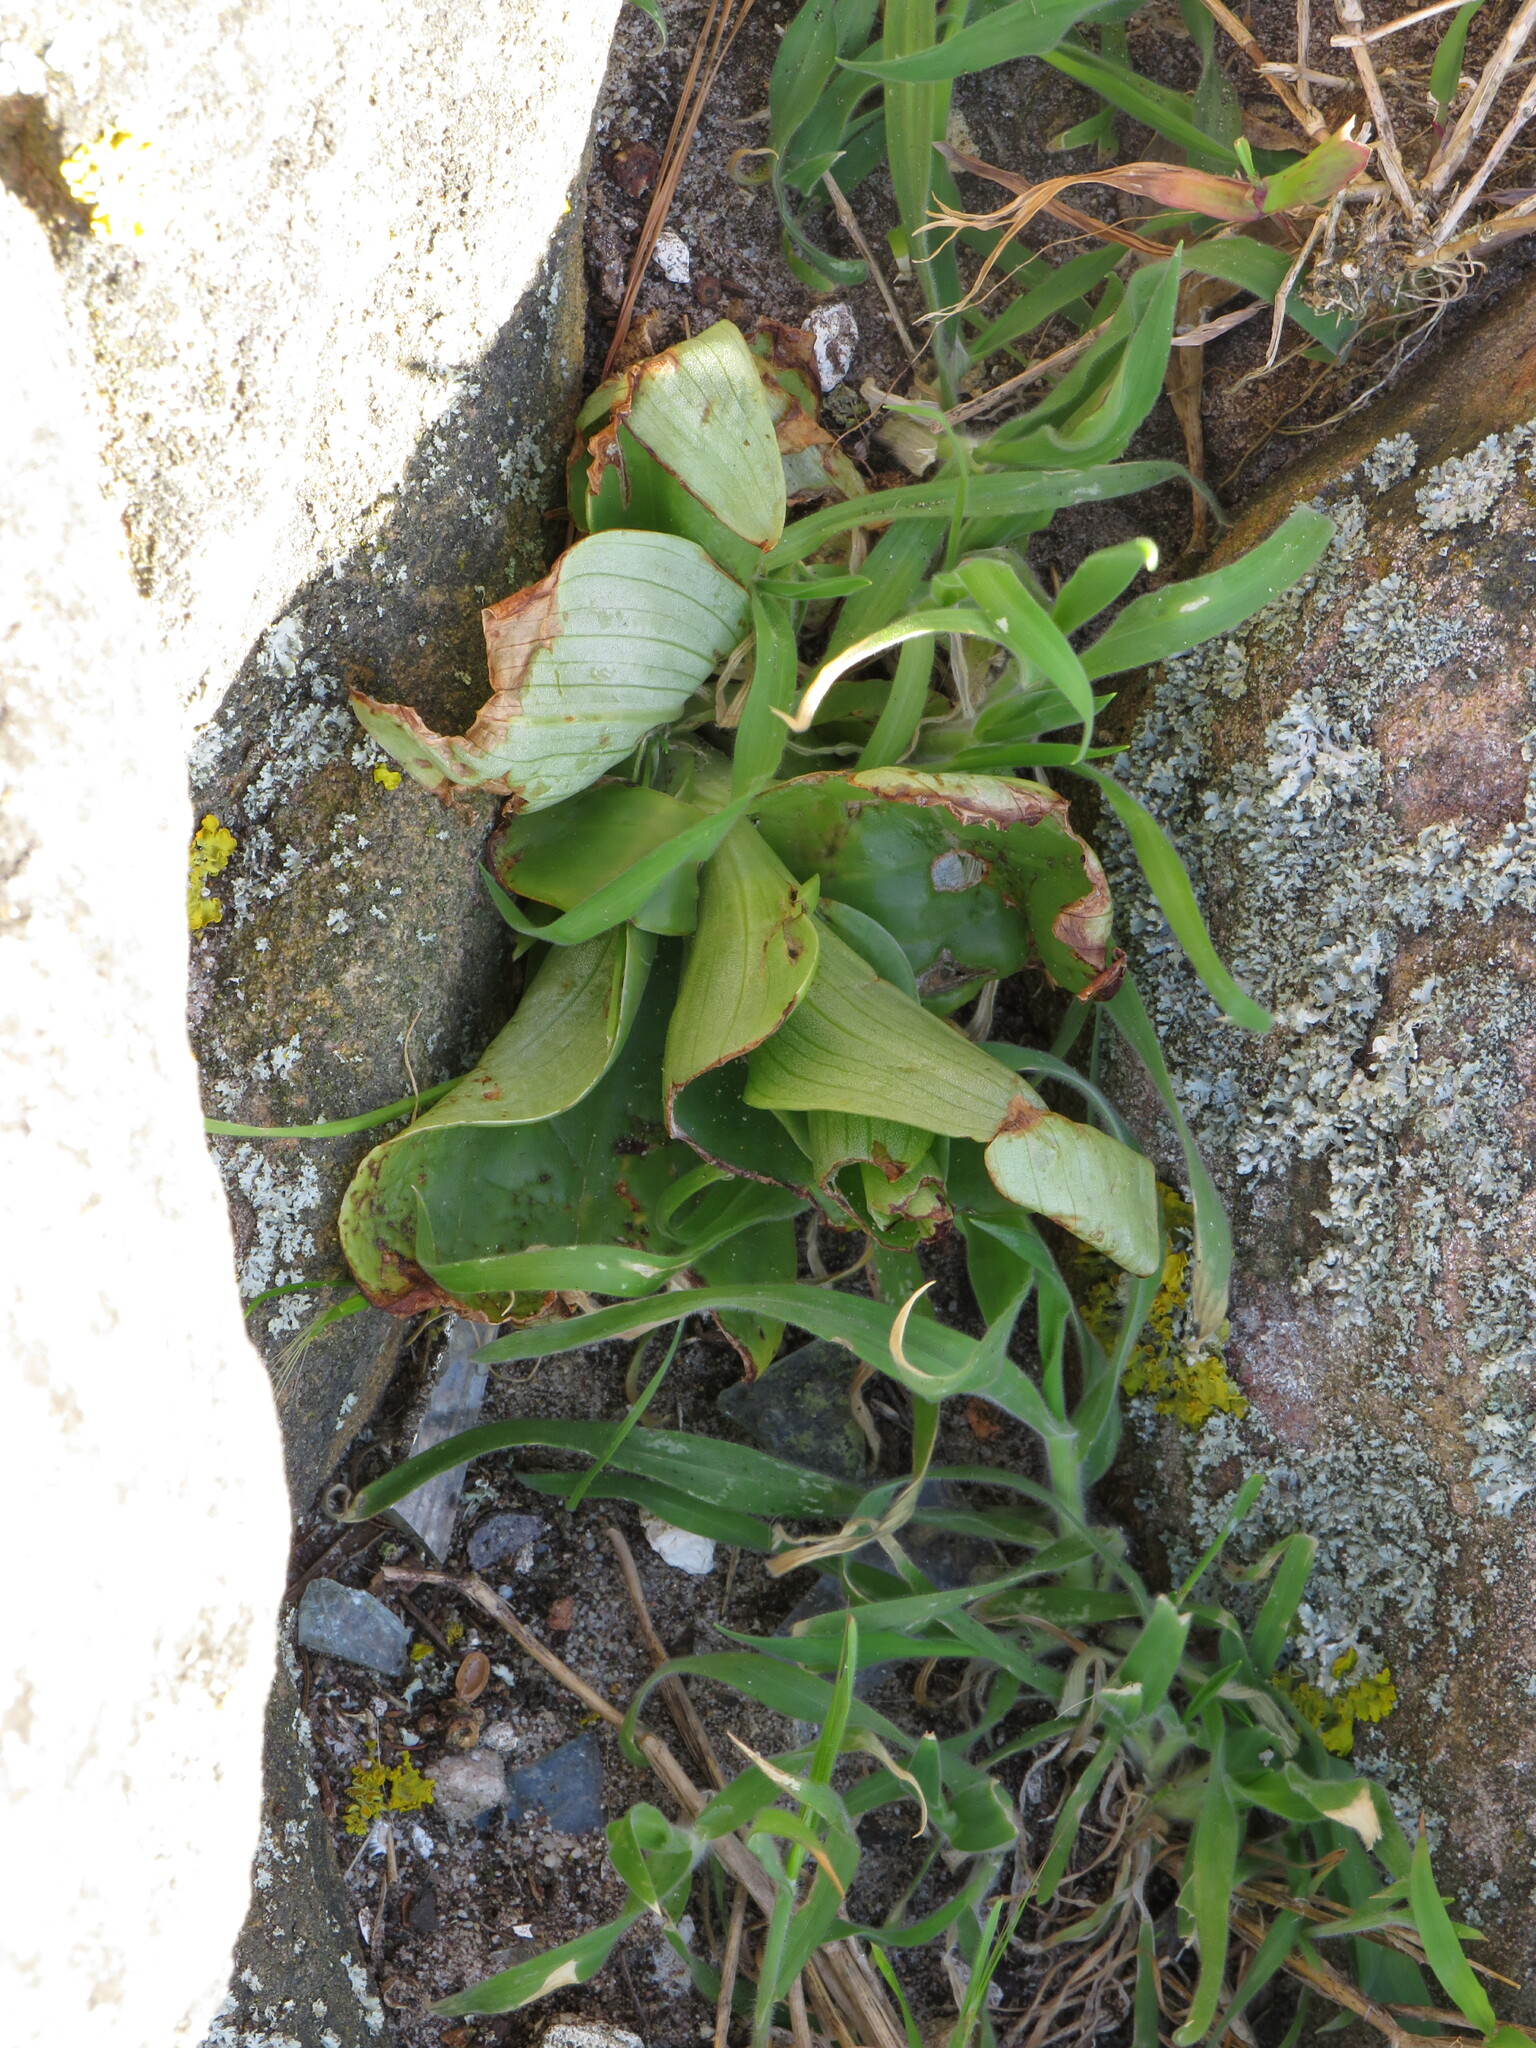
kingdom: Plantae
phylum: Tracheophyta
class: Liliopsida
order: Asparagales
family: Orchidaceae
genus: Satyrium
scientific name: Satyrium odorum
